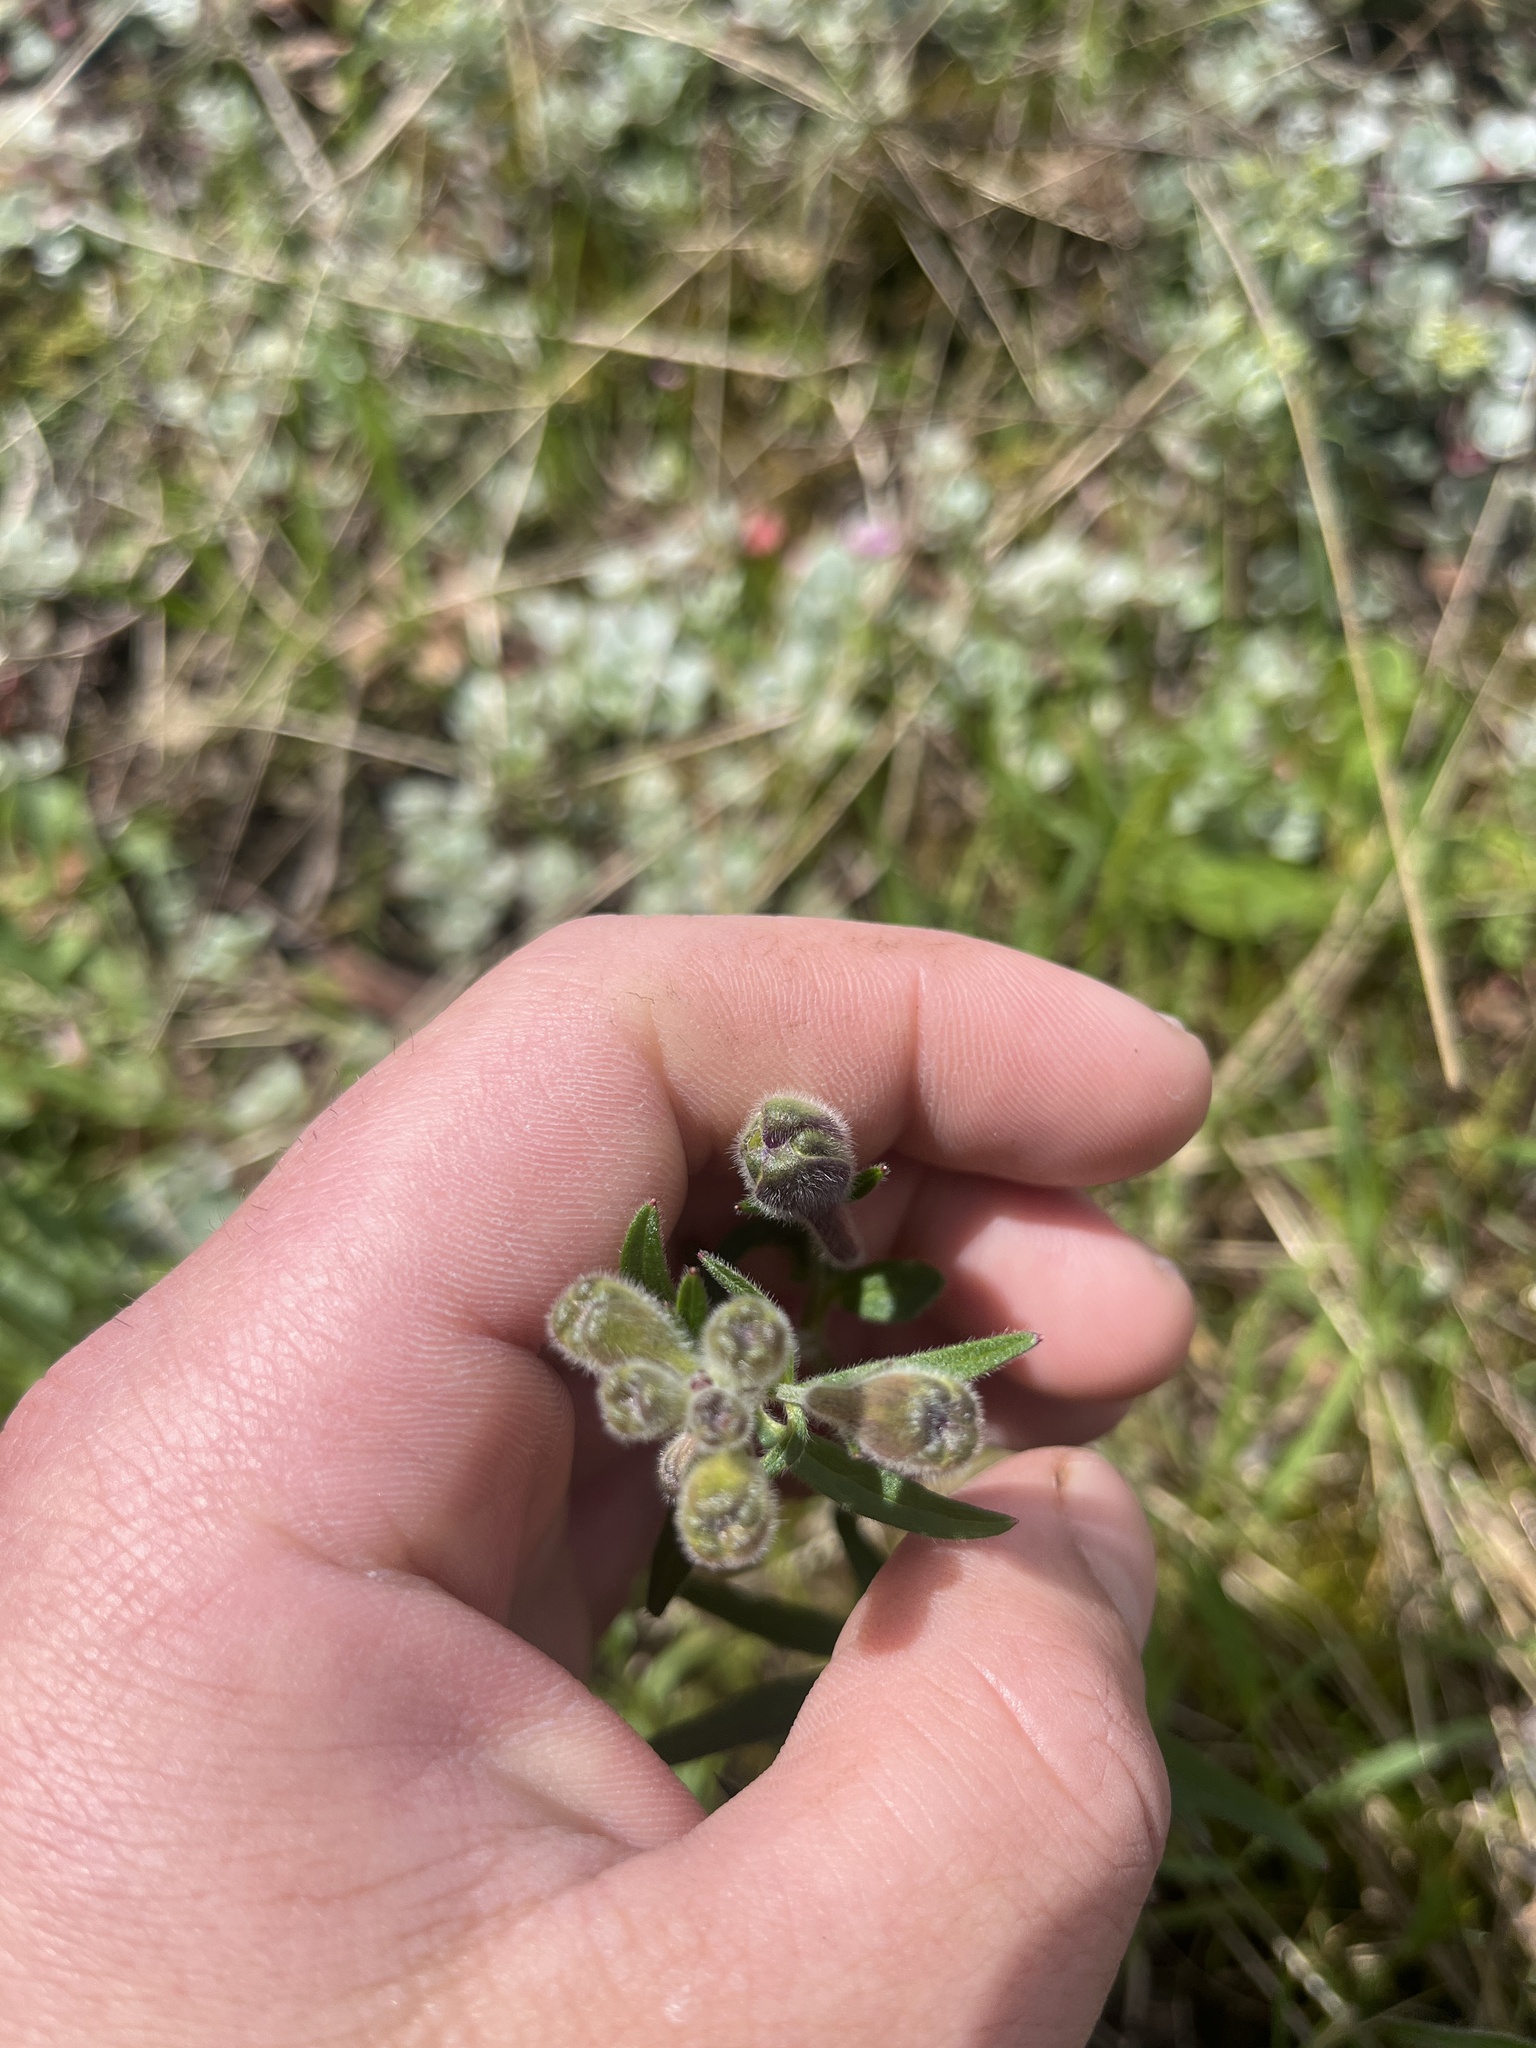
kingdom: Plantae
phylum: Tracheophyta
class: Magnoliopsida
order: Ranunculales
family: Ranunculaceae
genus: Delphinium
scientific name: Delphinium menziesii
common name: Menzies's larkspur
